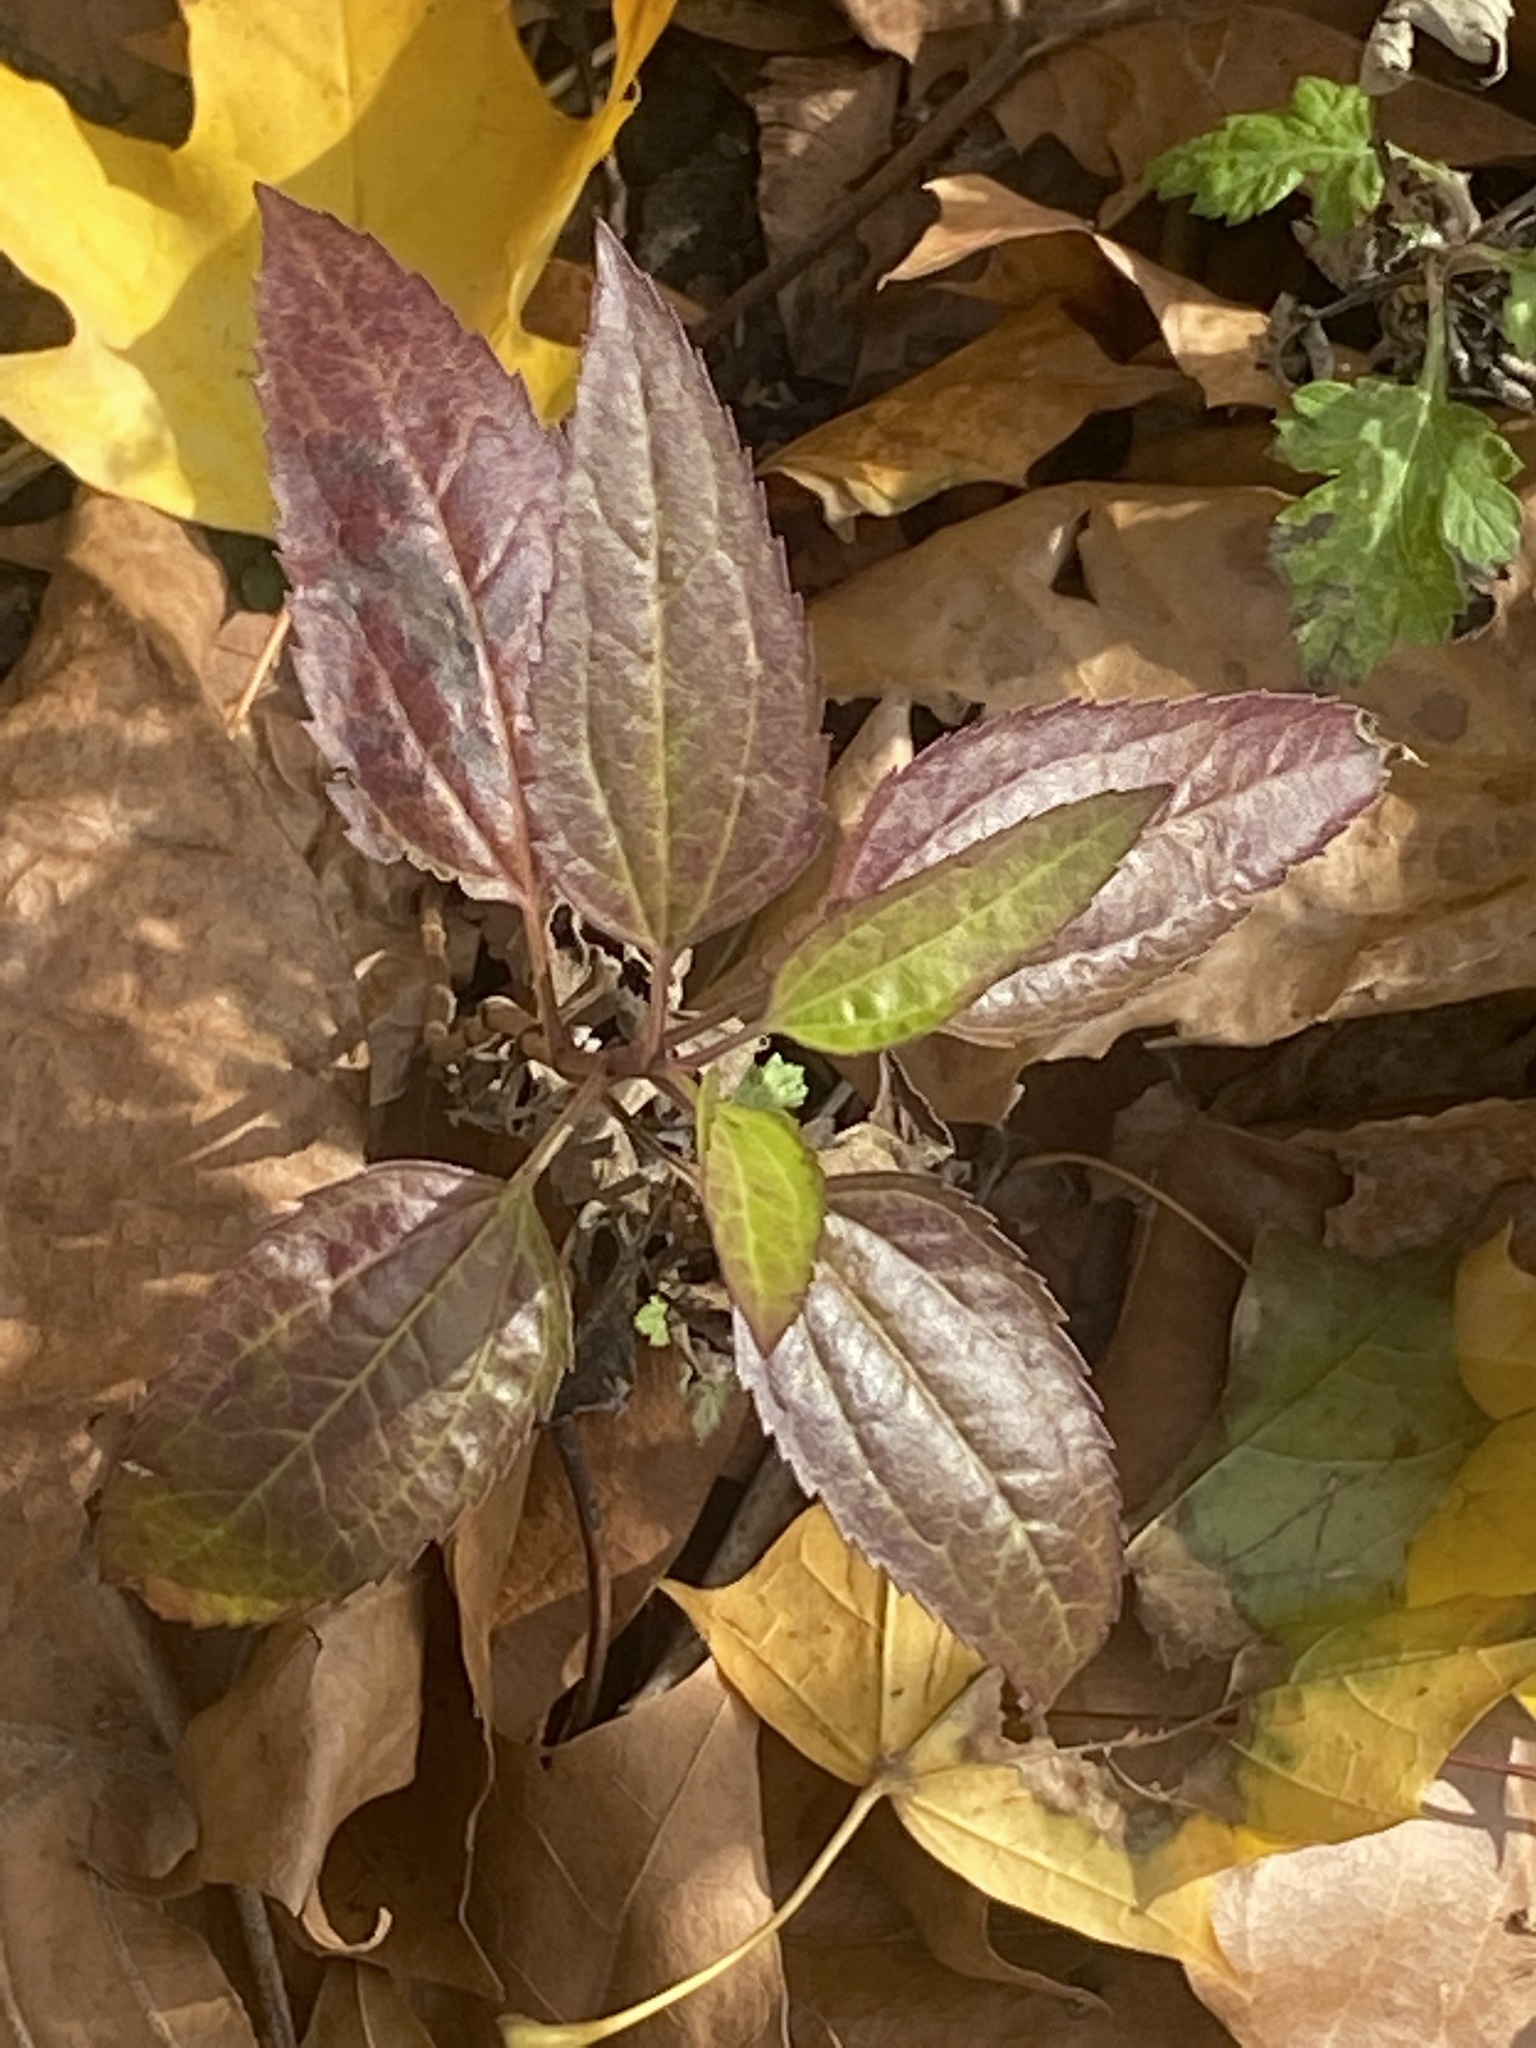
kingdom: Plantae
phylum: Tracheophyta
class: Magnoliopsida
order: Asterales
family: Asteraceae
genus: Eupatorium
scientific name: Eupatorium serotinum
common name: Late boneset
